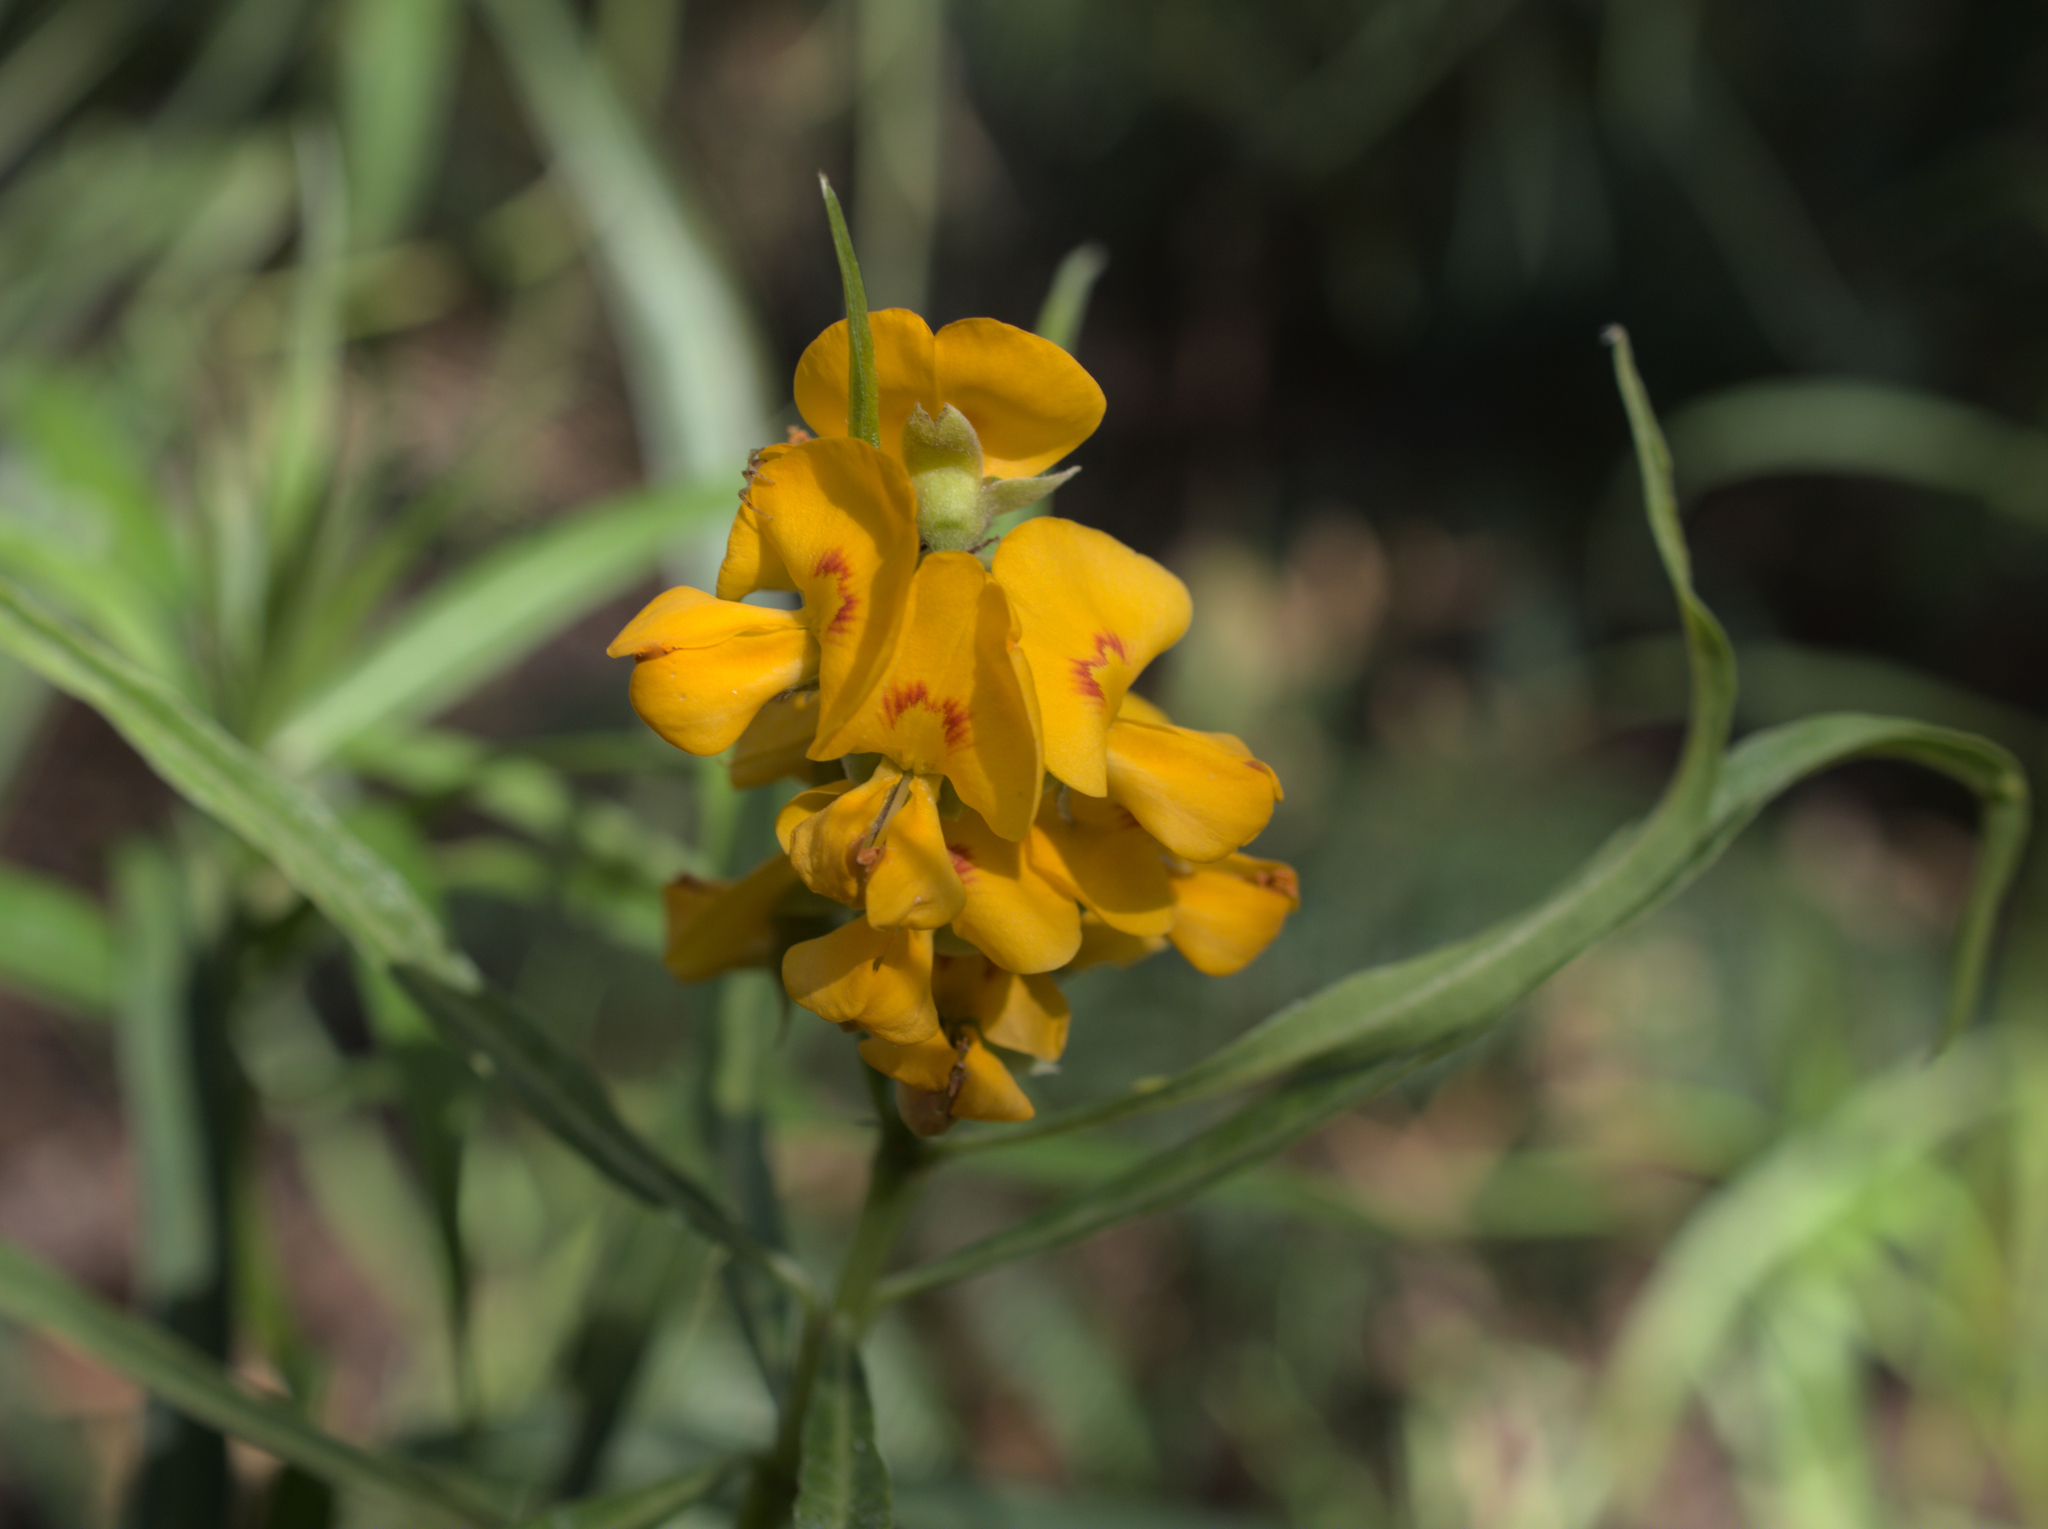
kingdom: Plantae
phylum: Tracheophyta
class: Magnoliopsida
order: Fabales
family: Fabaceae
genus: Callistachys
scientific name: Callistachys lanceolata
